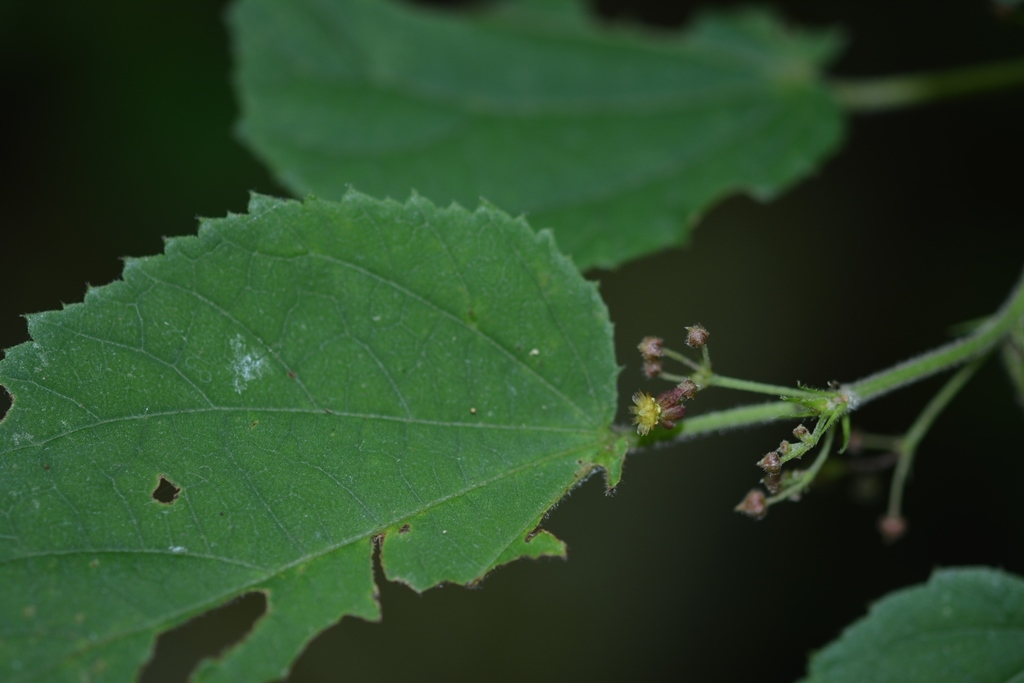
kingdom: Plantae
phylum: Tracheophyta
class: Magnoliopsida
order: Malvales
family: Malvaceae
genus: Ayenia
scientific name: Ayenia micrantha
